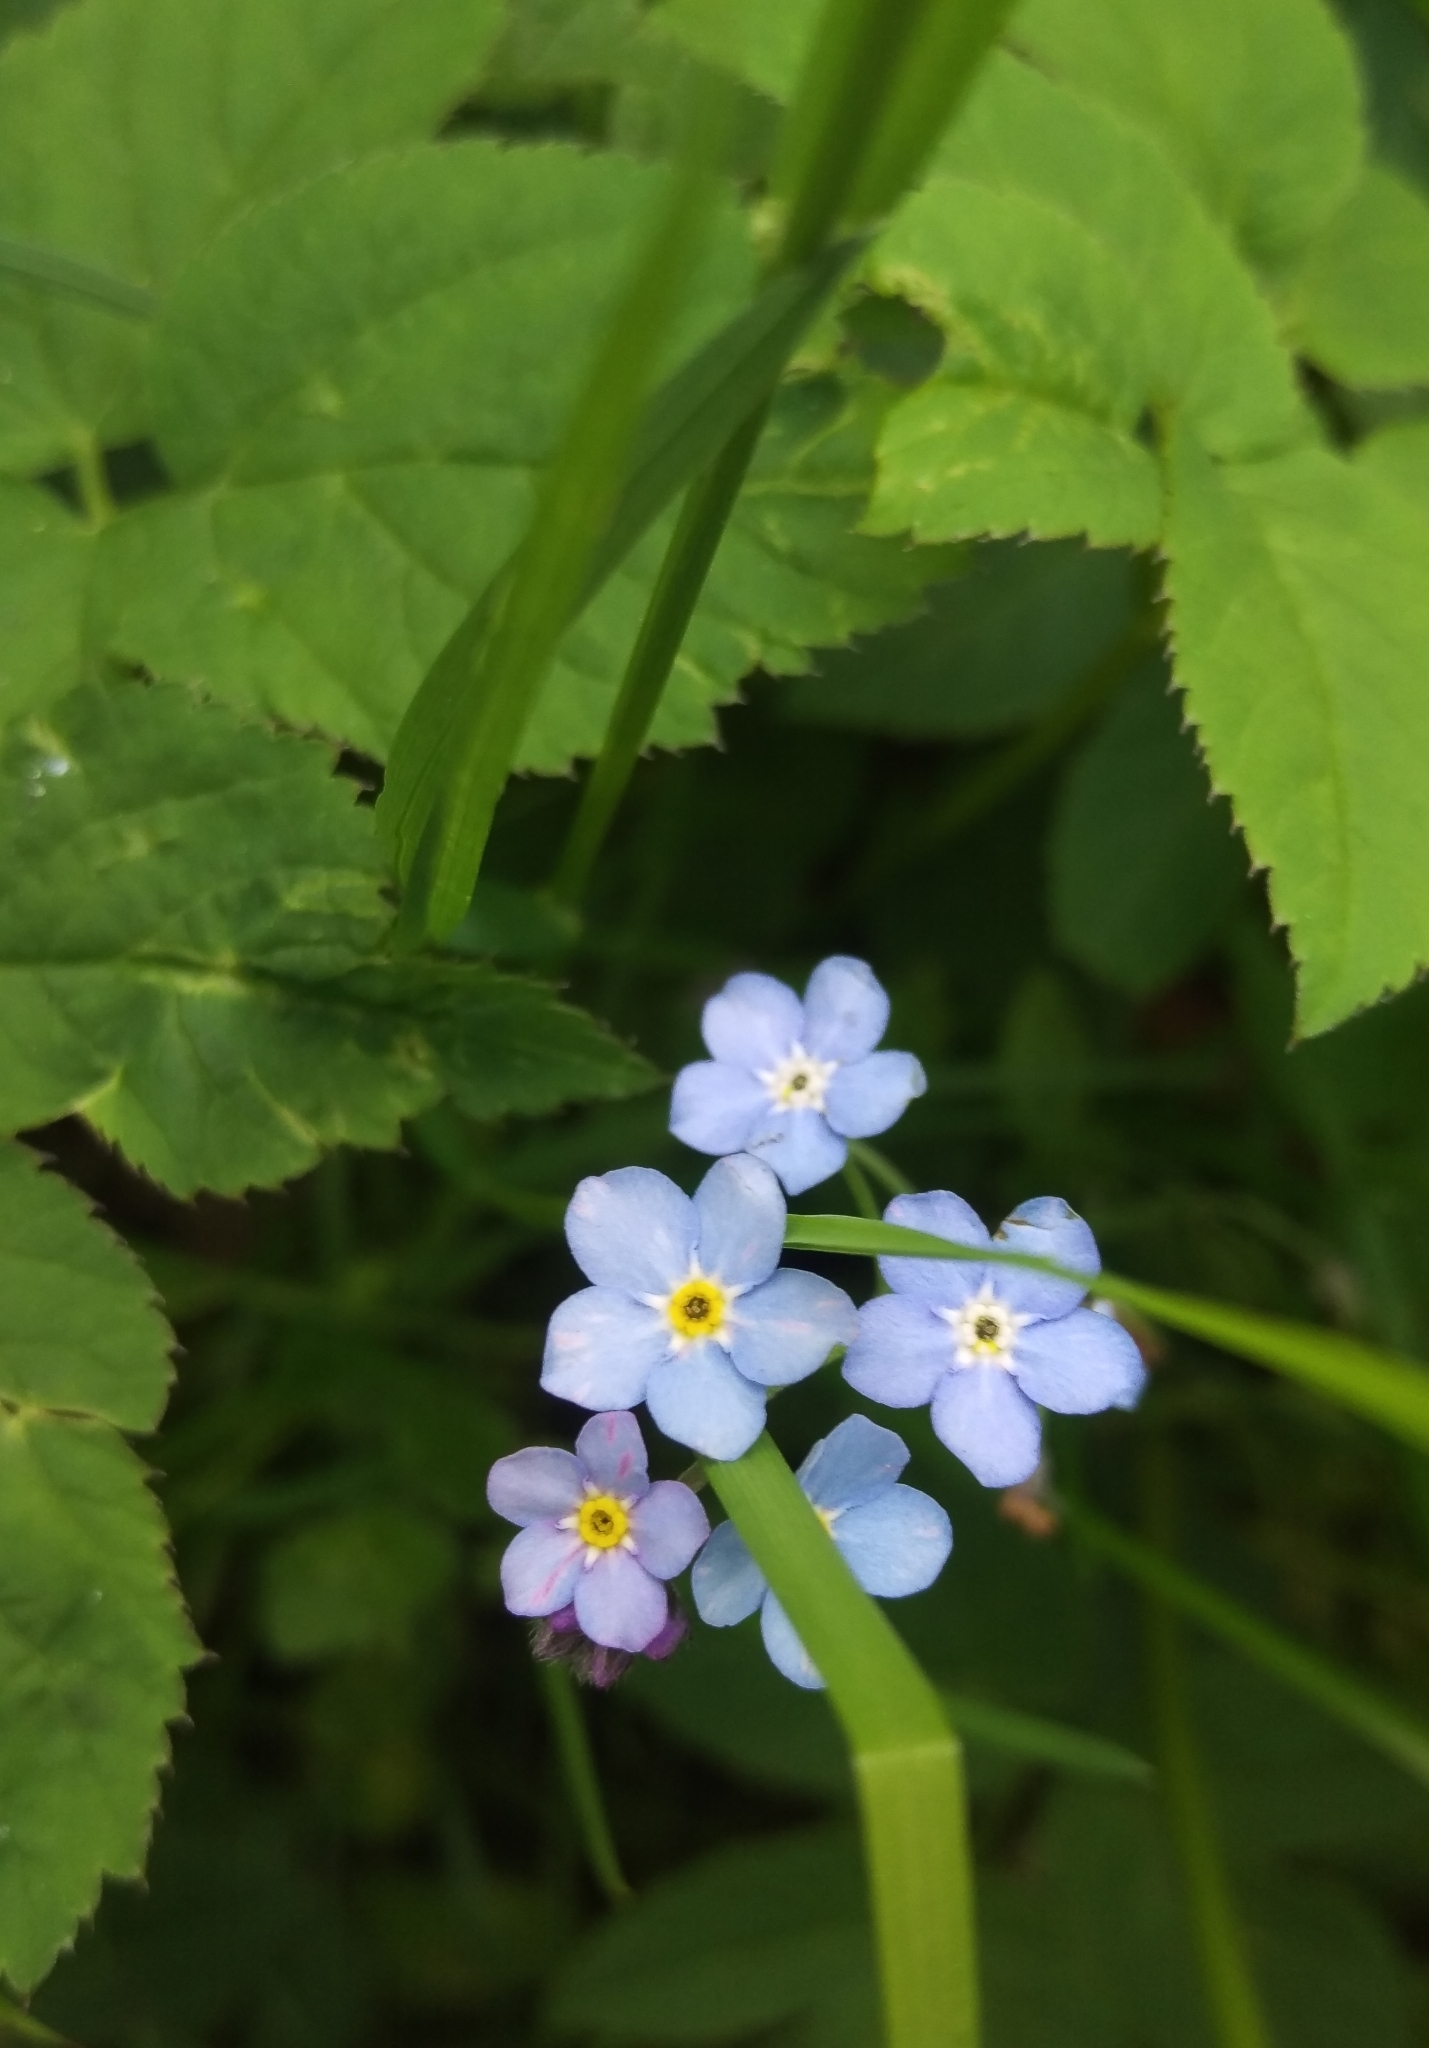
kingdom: Plantae
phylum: Tracheophyta
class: Magnoliopsida
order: Boraginales
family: Boraginaceae
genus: Myosotis
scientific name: Myosotis sylvatica
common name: Wood forget-me-not
